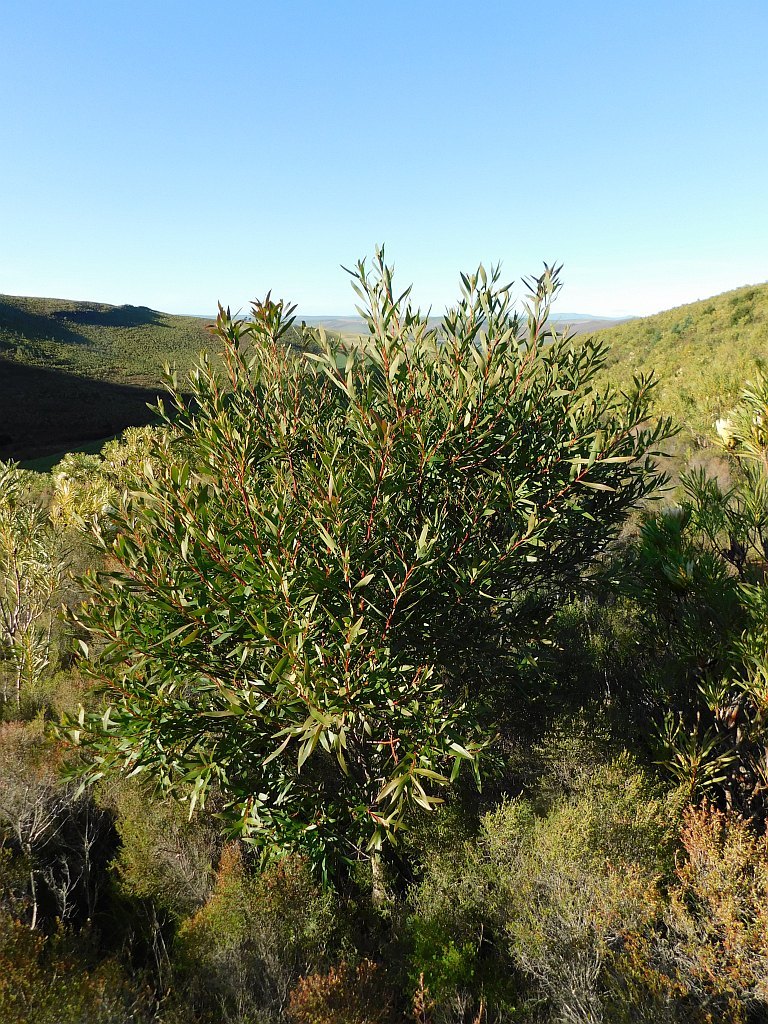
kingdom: Plantae
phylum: Tracheophyta
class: Magnoliopsida
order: Proteales
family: Proteaceae
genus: Hakea
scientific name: Hakea salicifolia
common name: Willow hakea
